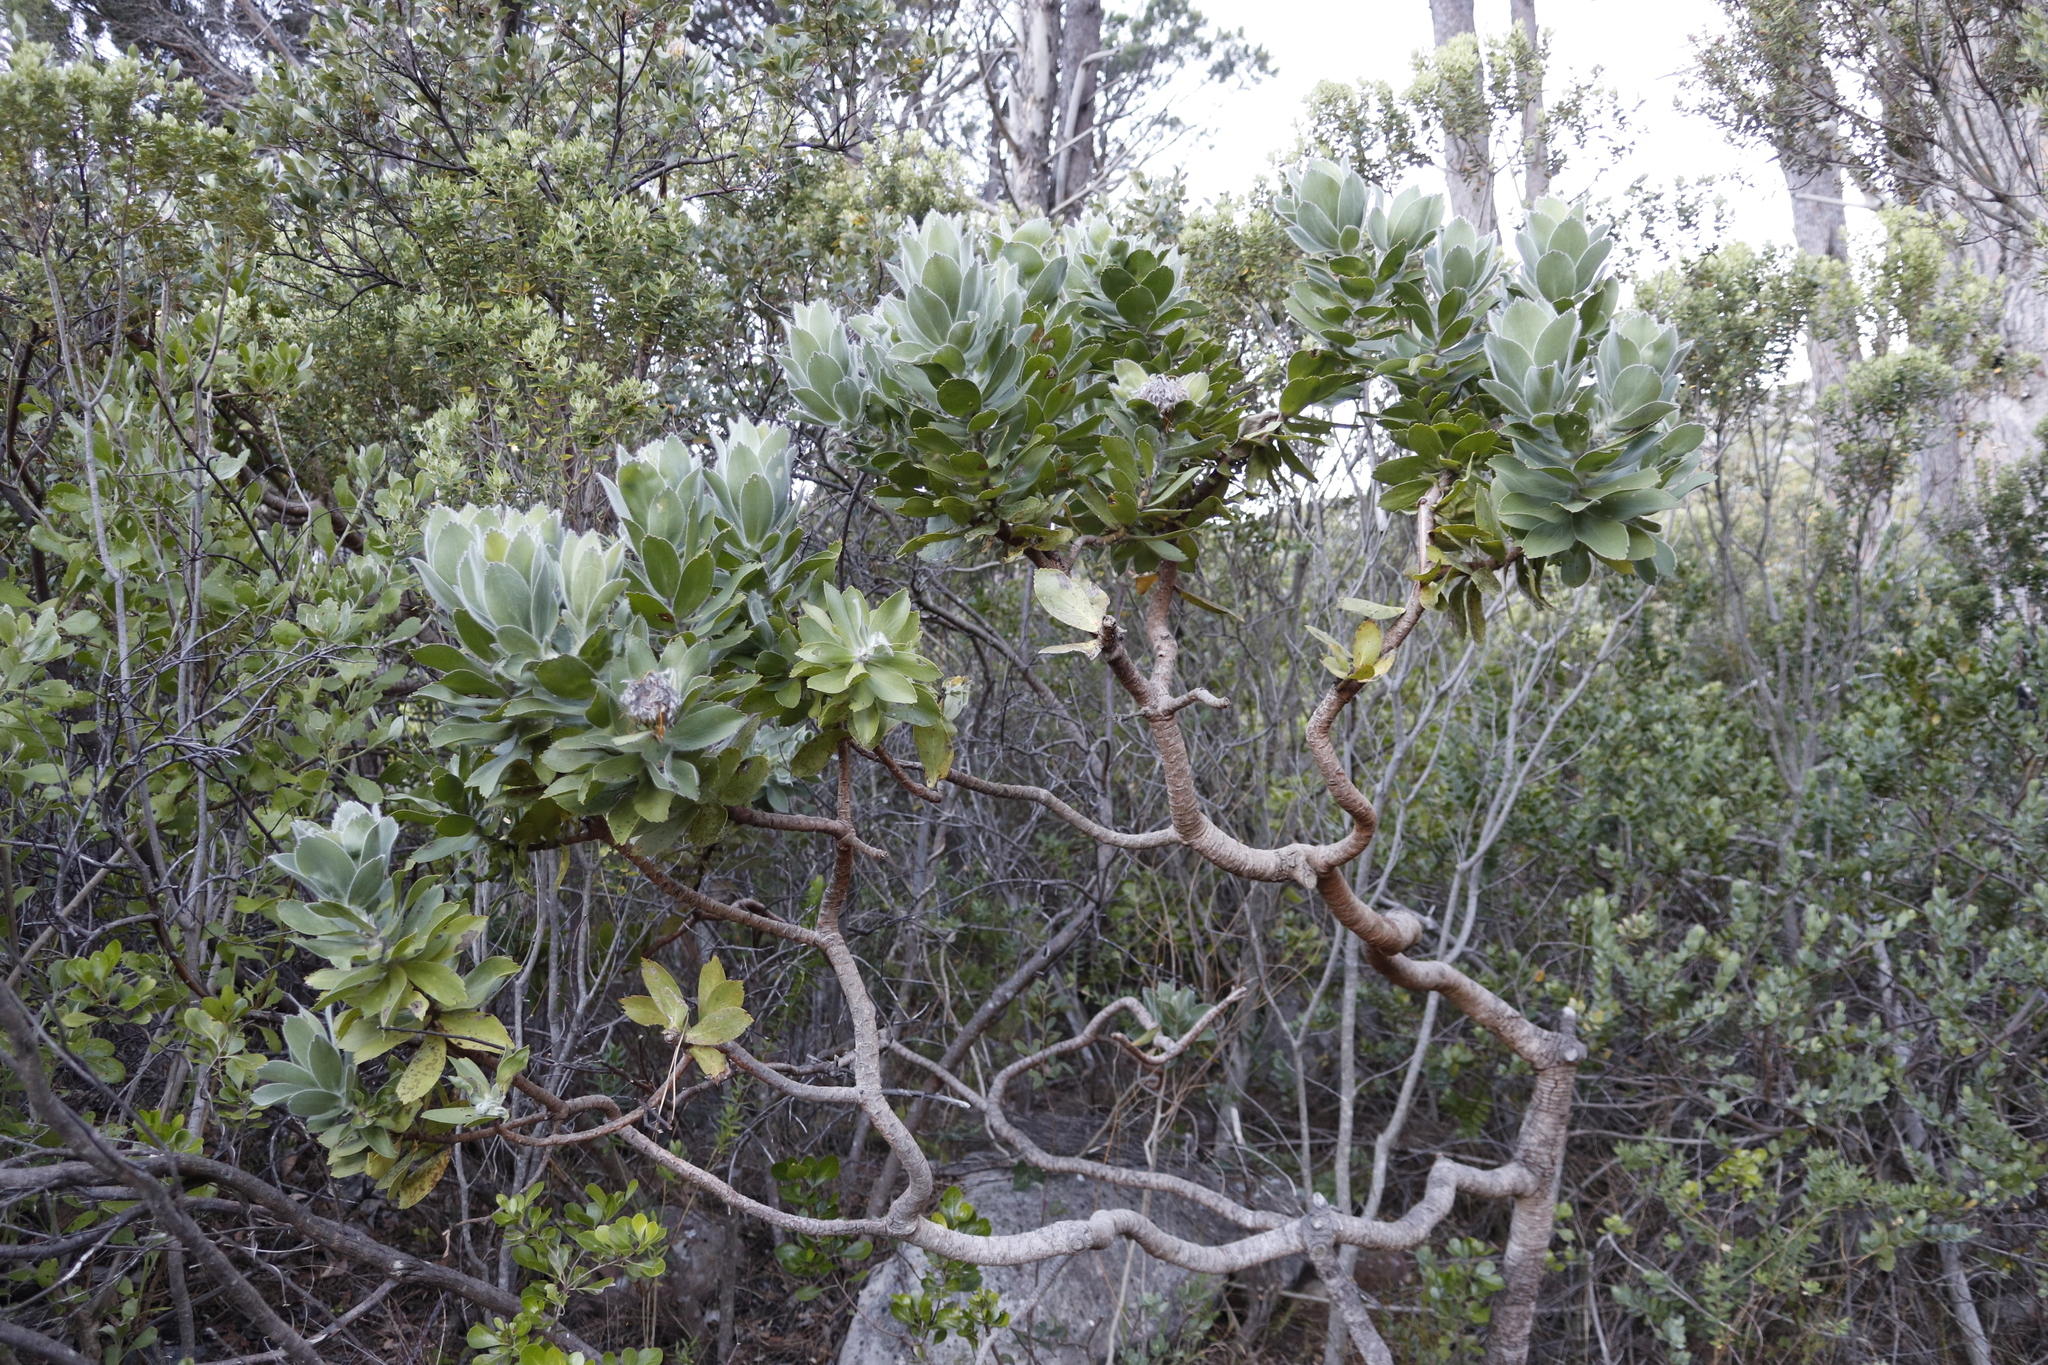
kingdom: Plantae
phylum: Tracheophyta
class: Magnoliopsida
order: Proteales
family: Proteaceae
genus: Leucospermum
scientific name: Leucospermum conocarpodendron
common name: Tree pincushion
